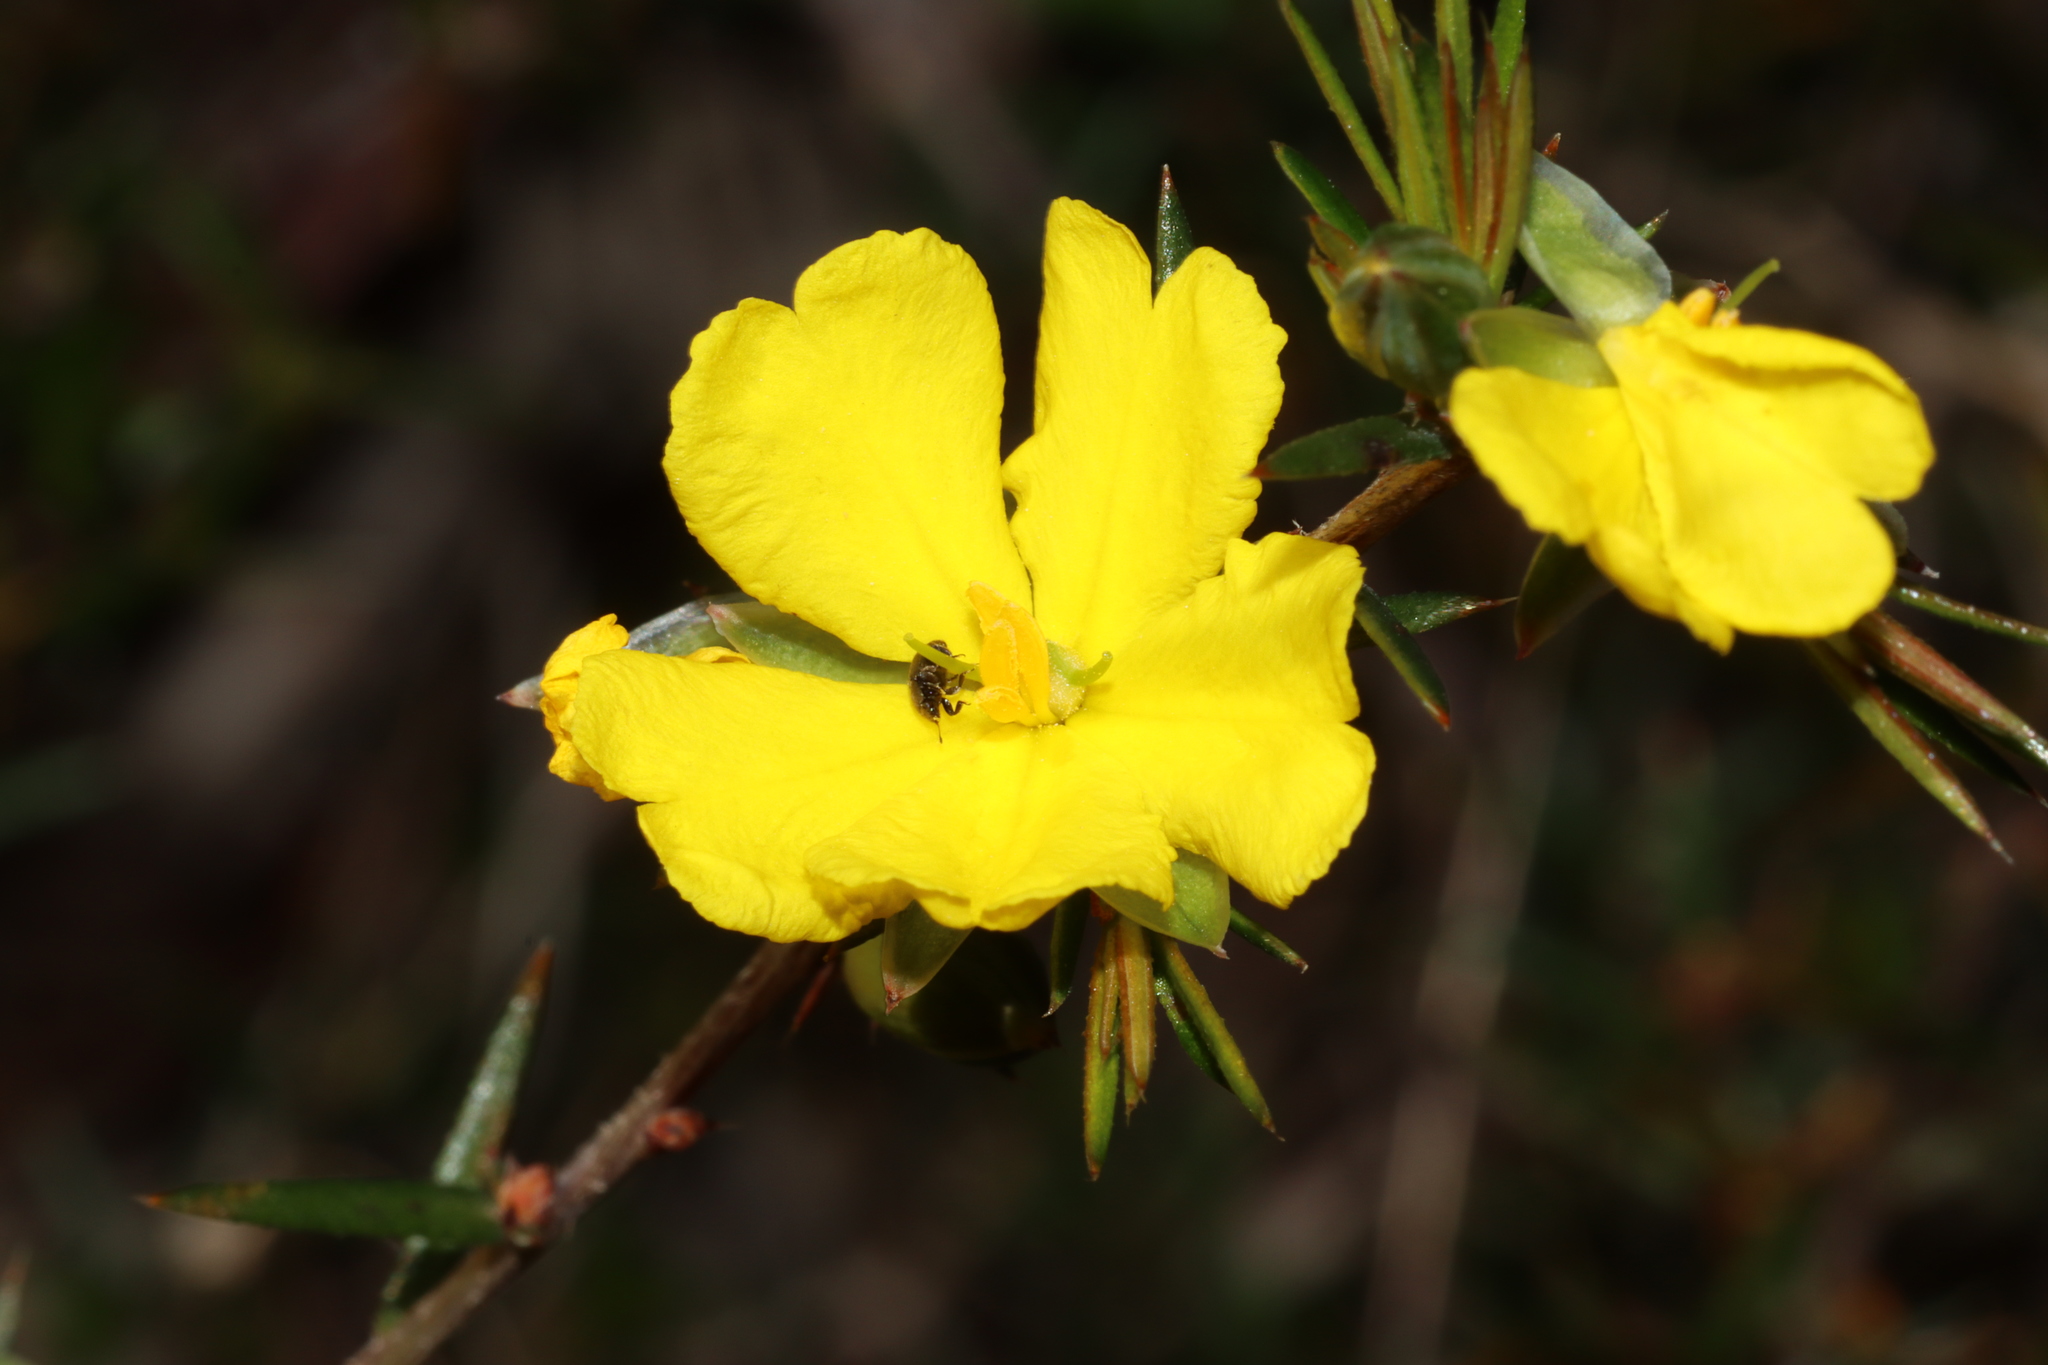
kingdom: Plantae
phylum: Tracheophyta
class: Magnoliopsida
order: Dilleniales
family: Dilleniaceae
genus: Hibbertia
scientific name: Hibbertia exutiacies
